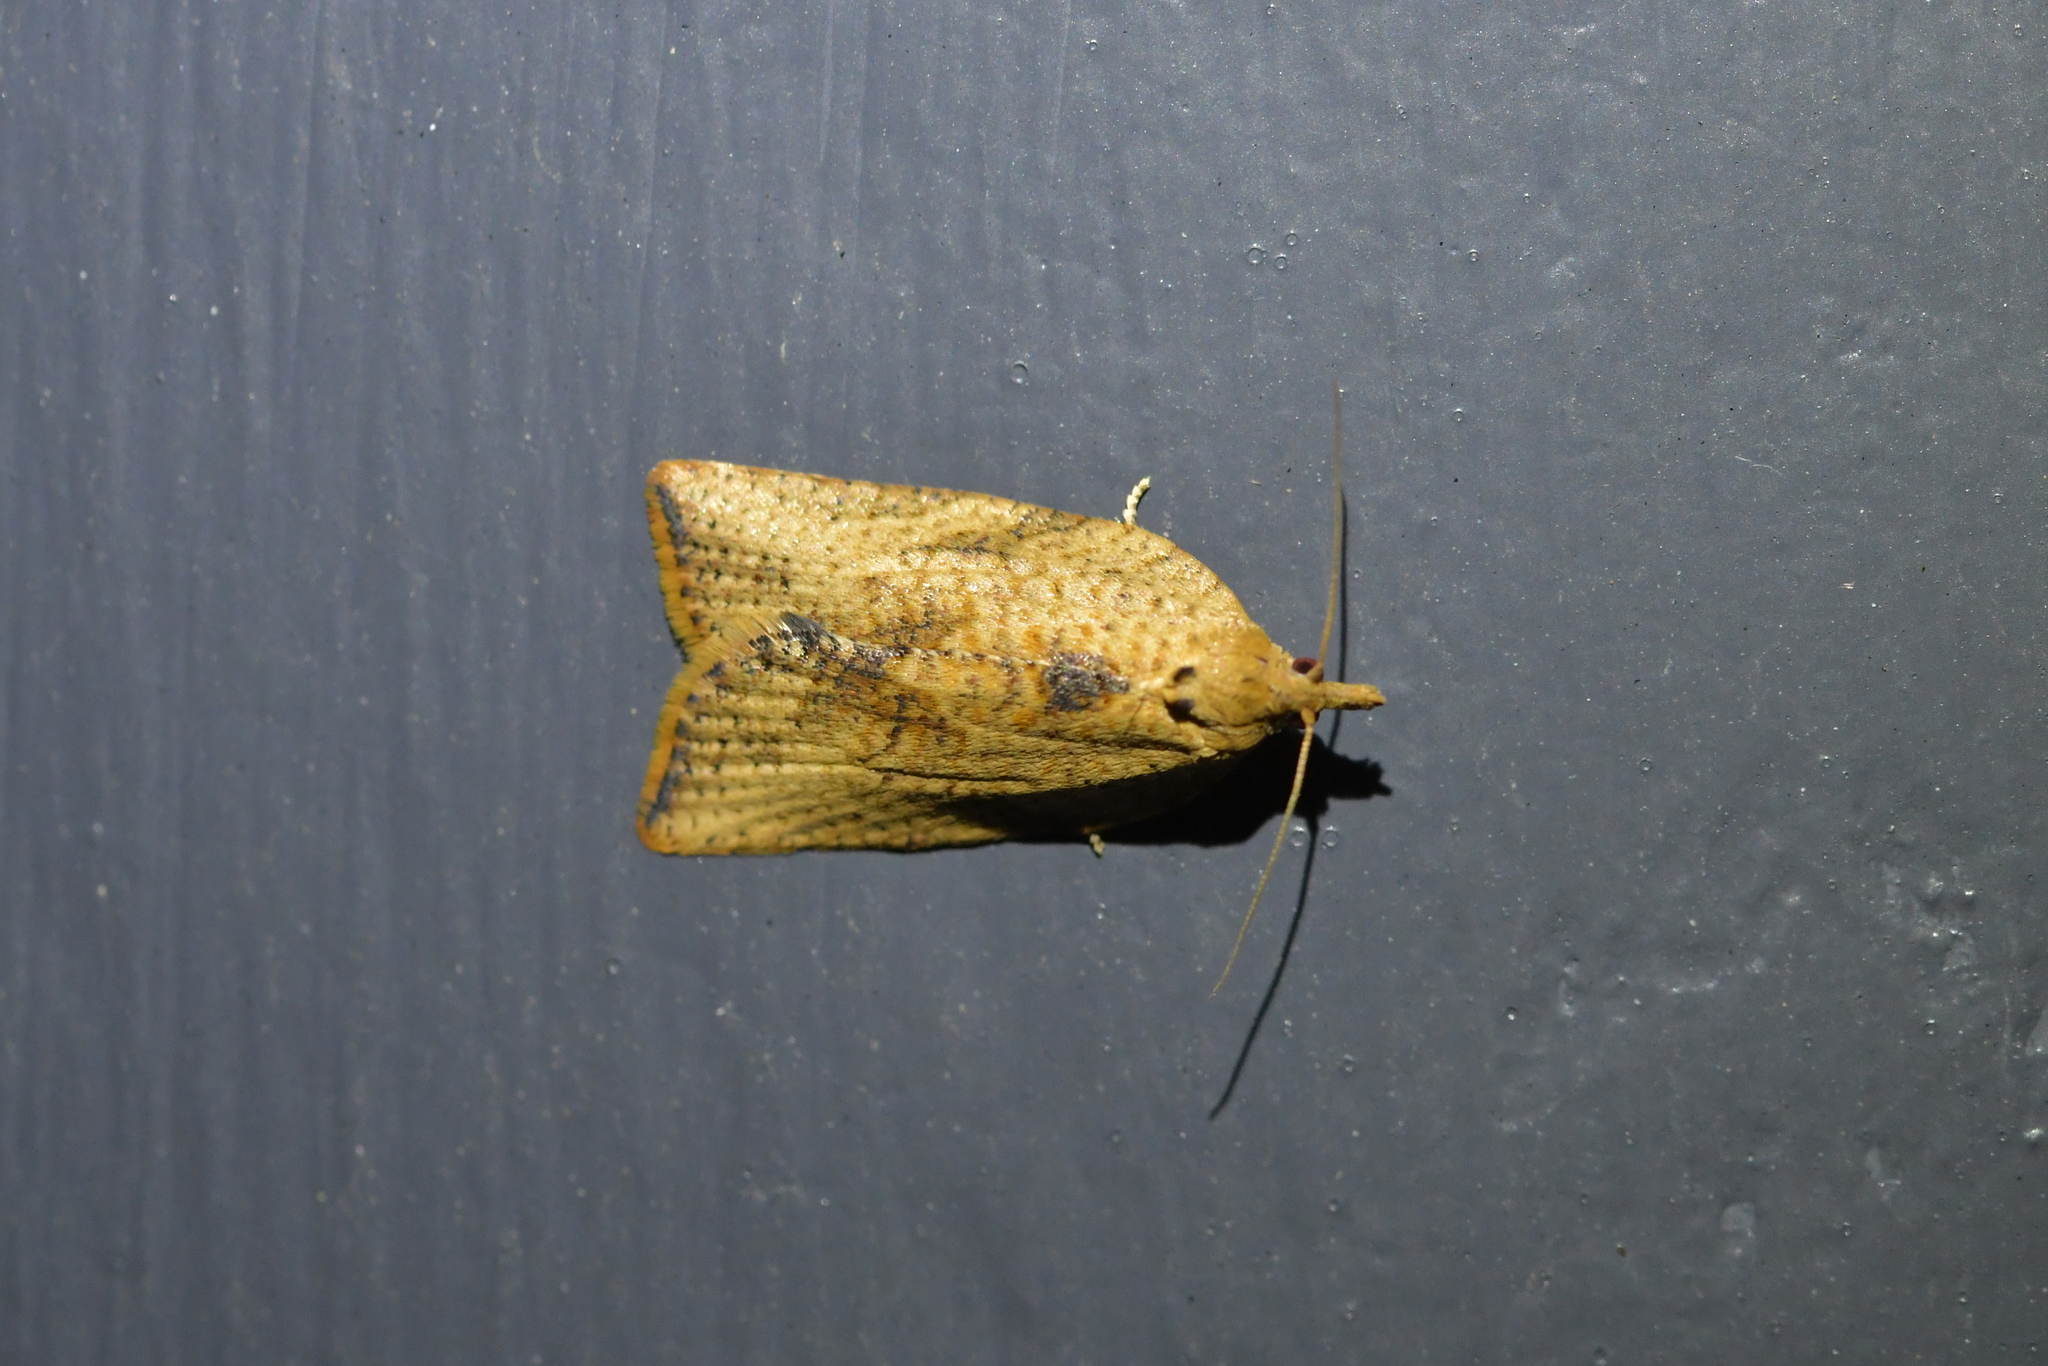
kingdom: Animalia
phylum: Arthropoda
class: Insecta
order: Lepidoptera
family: Tortricidae
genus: Epiphyas
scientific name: Epiphyas postvittana
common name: Light brown apple moth
